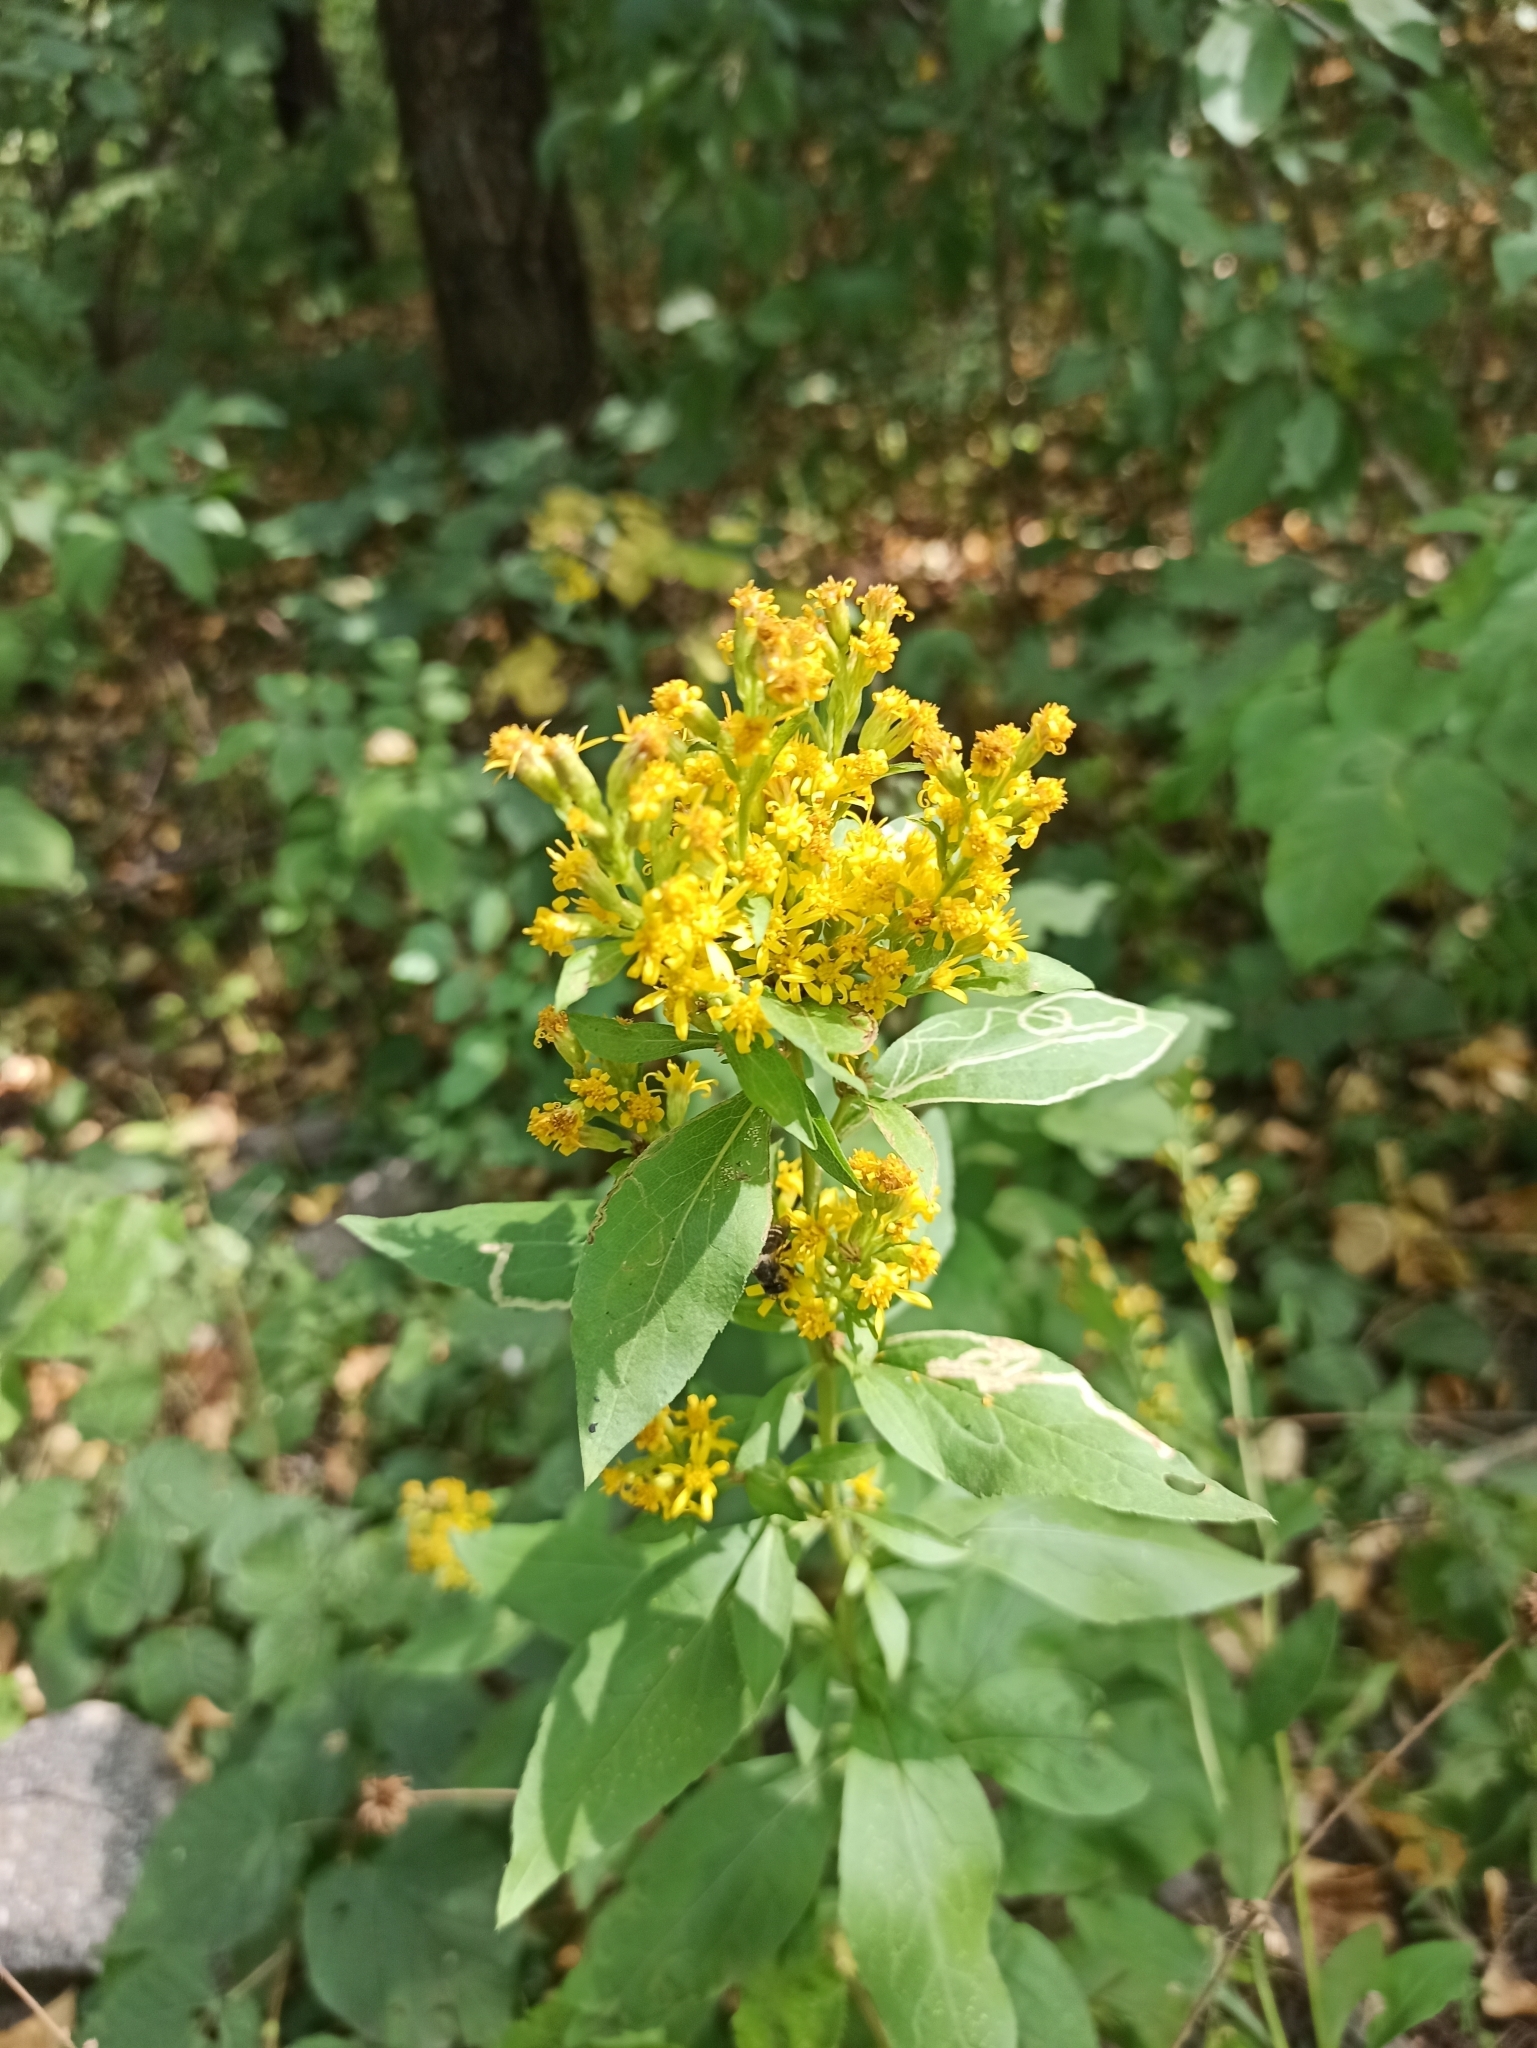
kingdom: Plantae
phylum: Tracheophyta
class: Magnoliopsida
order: Asterales
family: Asteraceae
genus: Solidago
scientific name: Solidago virgaurea
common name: Goldenrod
